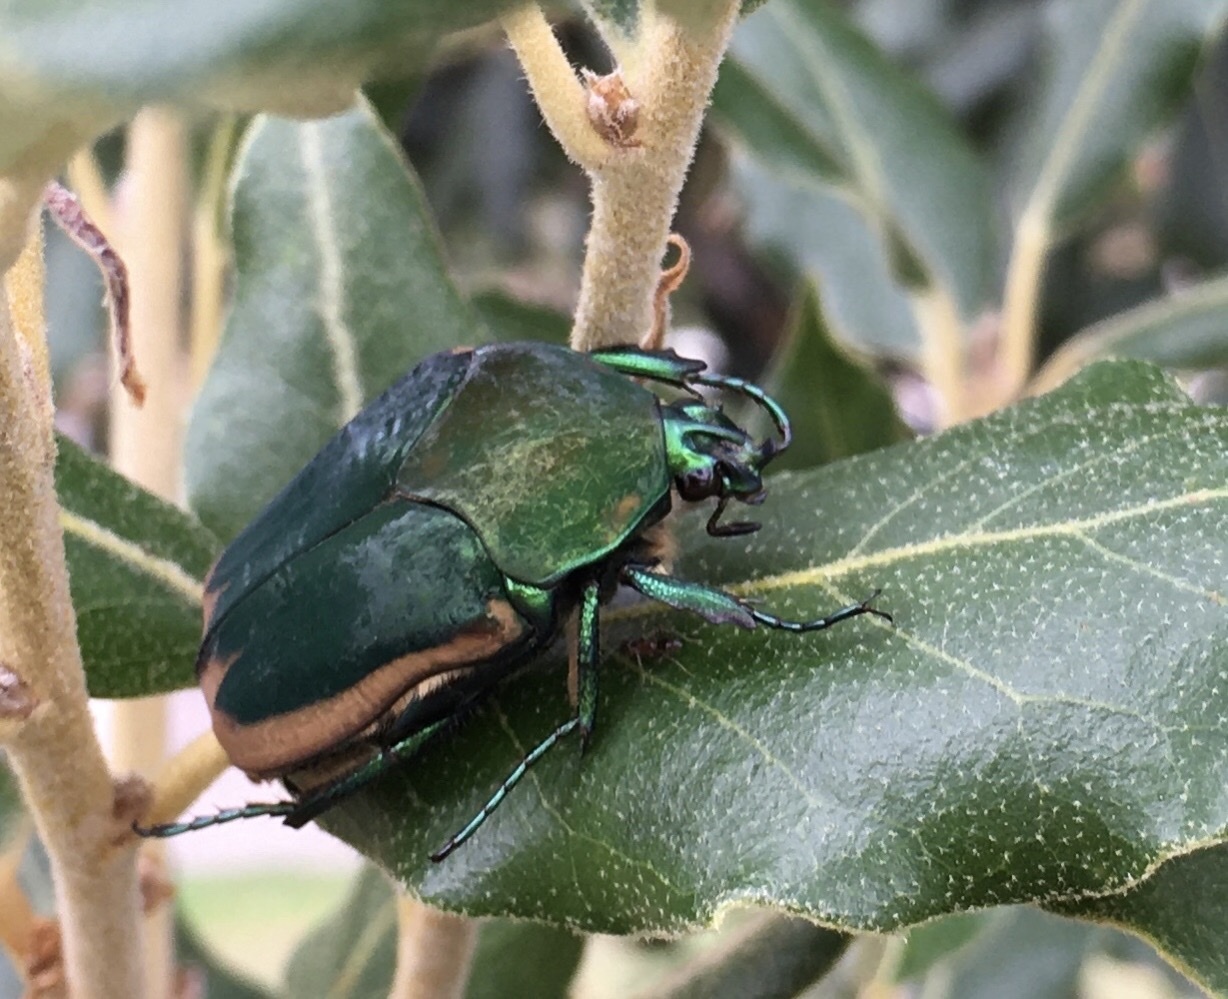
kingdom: Animalia
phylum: Arthropoda
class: Insecta
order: Coleoptera
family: Scarabaeidae
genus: Cotinis
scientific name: Cotinis mutabilis
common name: Figeater beetle
